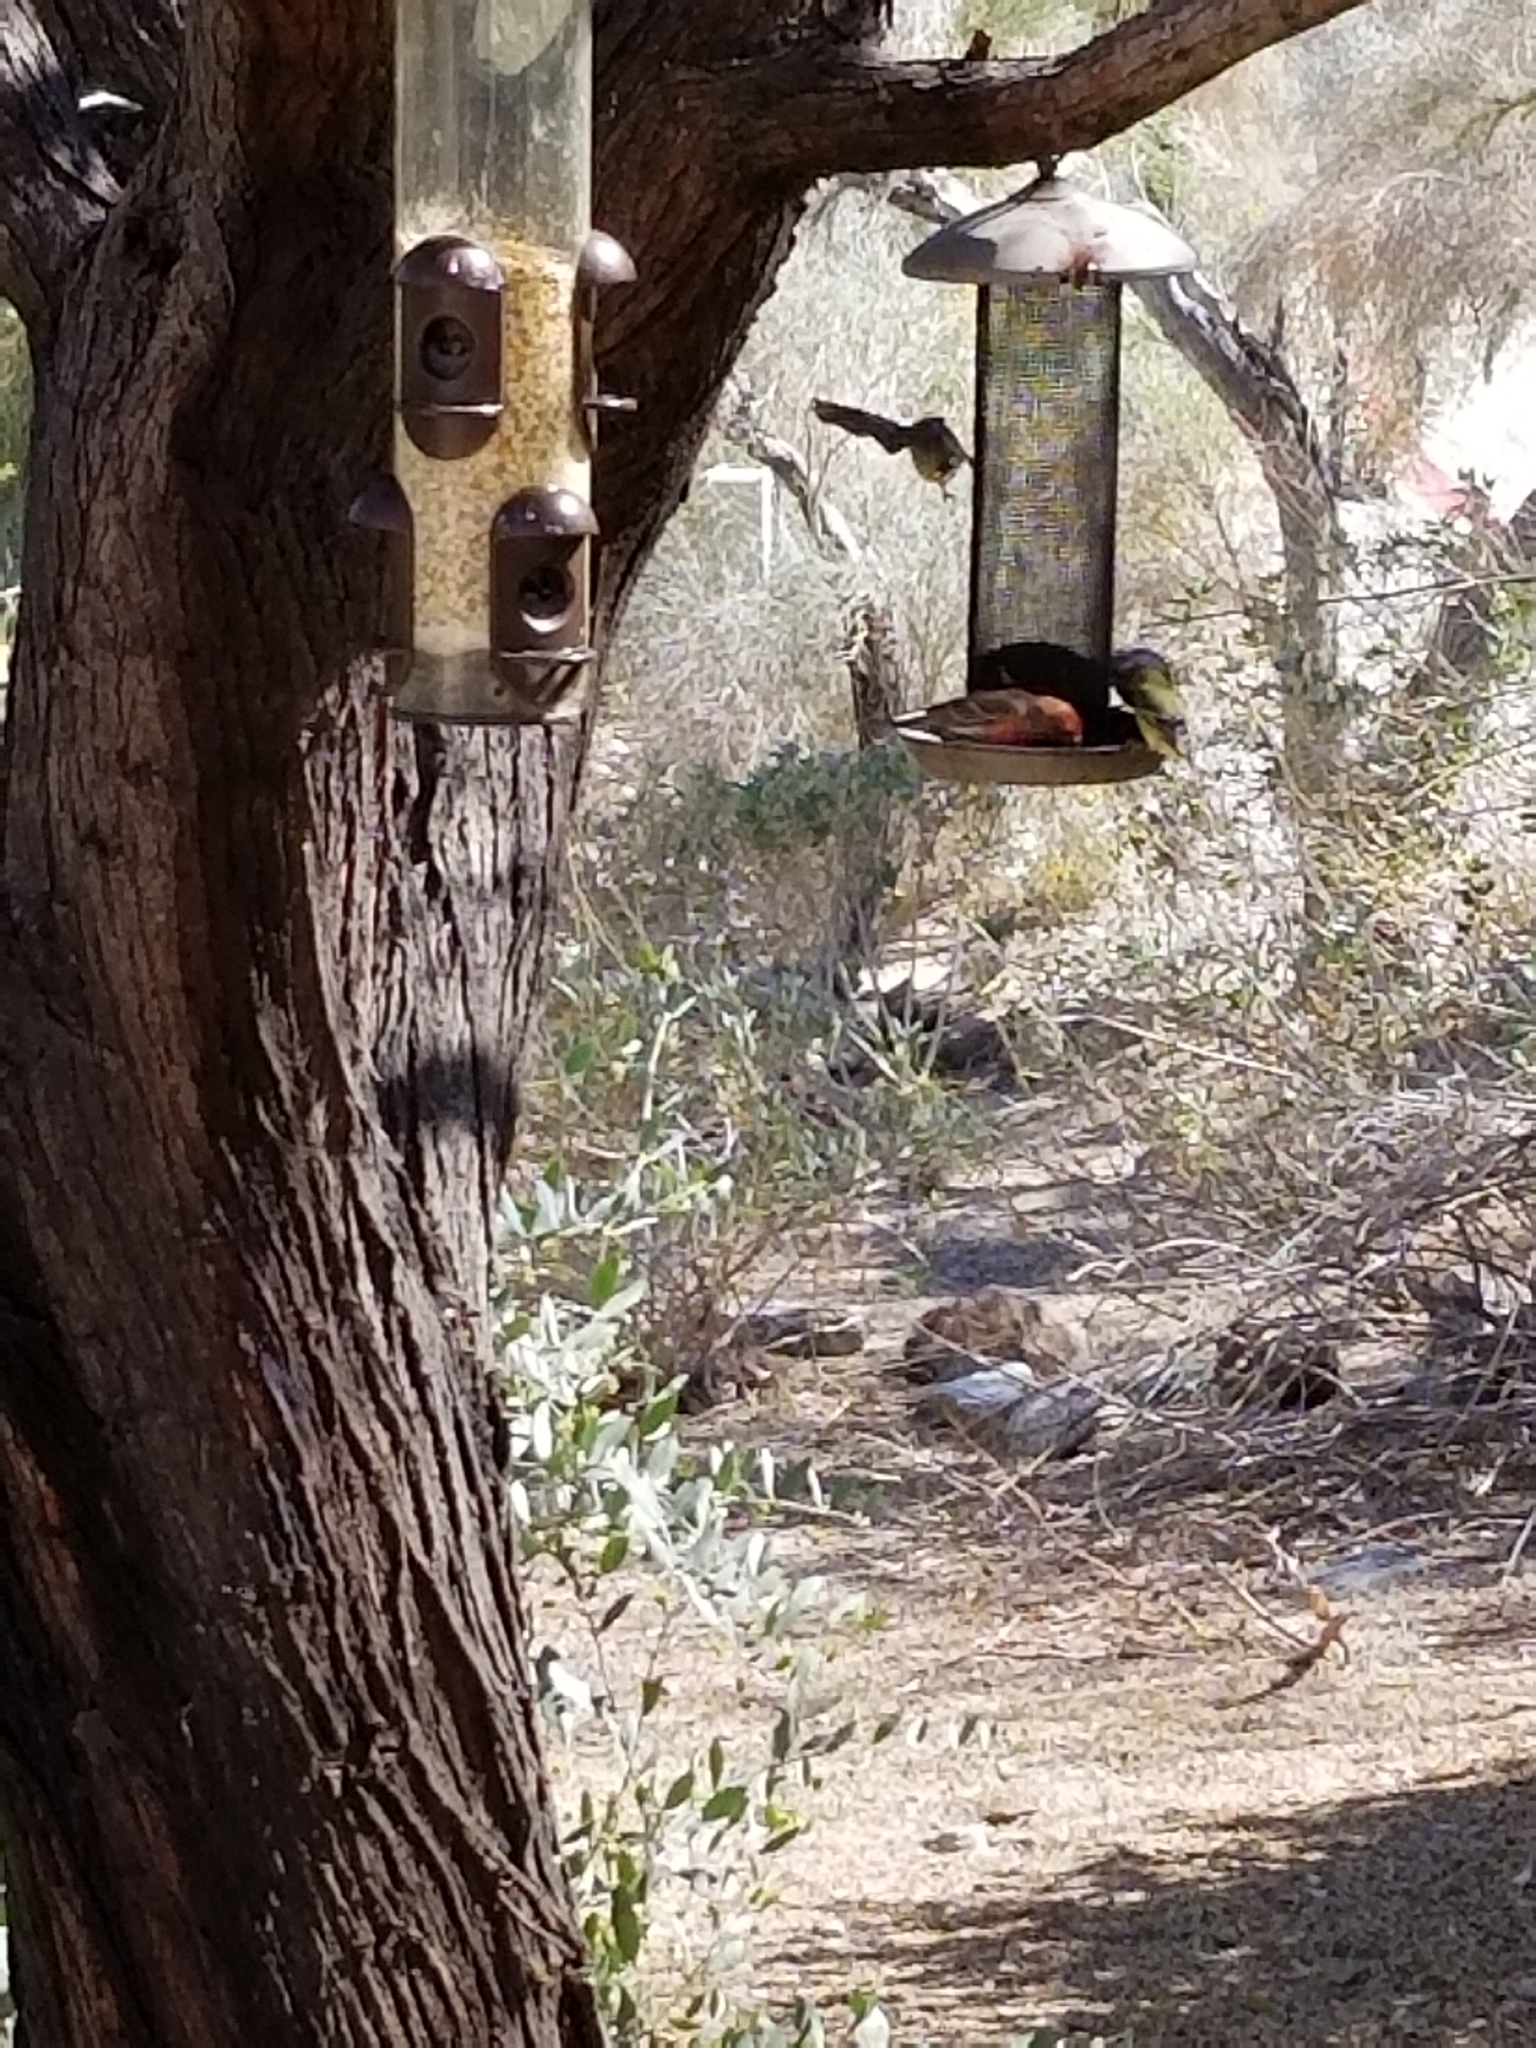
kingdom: Animalia
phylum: Chordata
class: Aves
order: Passeriformes
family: Fringillidae
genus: Haemorhous
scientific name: Haemorhous mexicanus
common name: House finch
